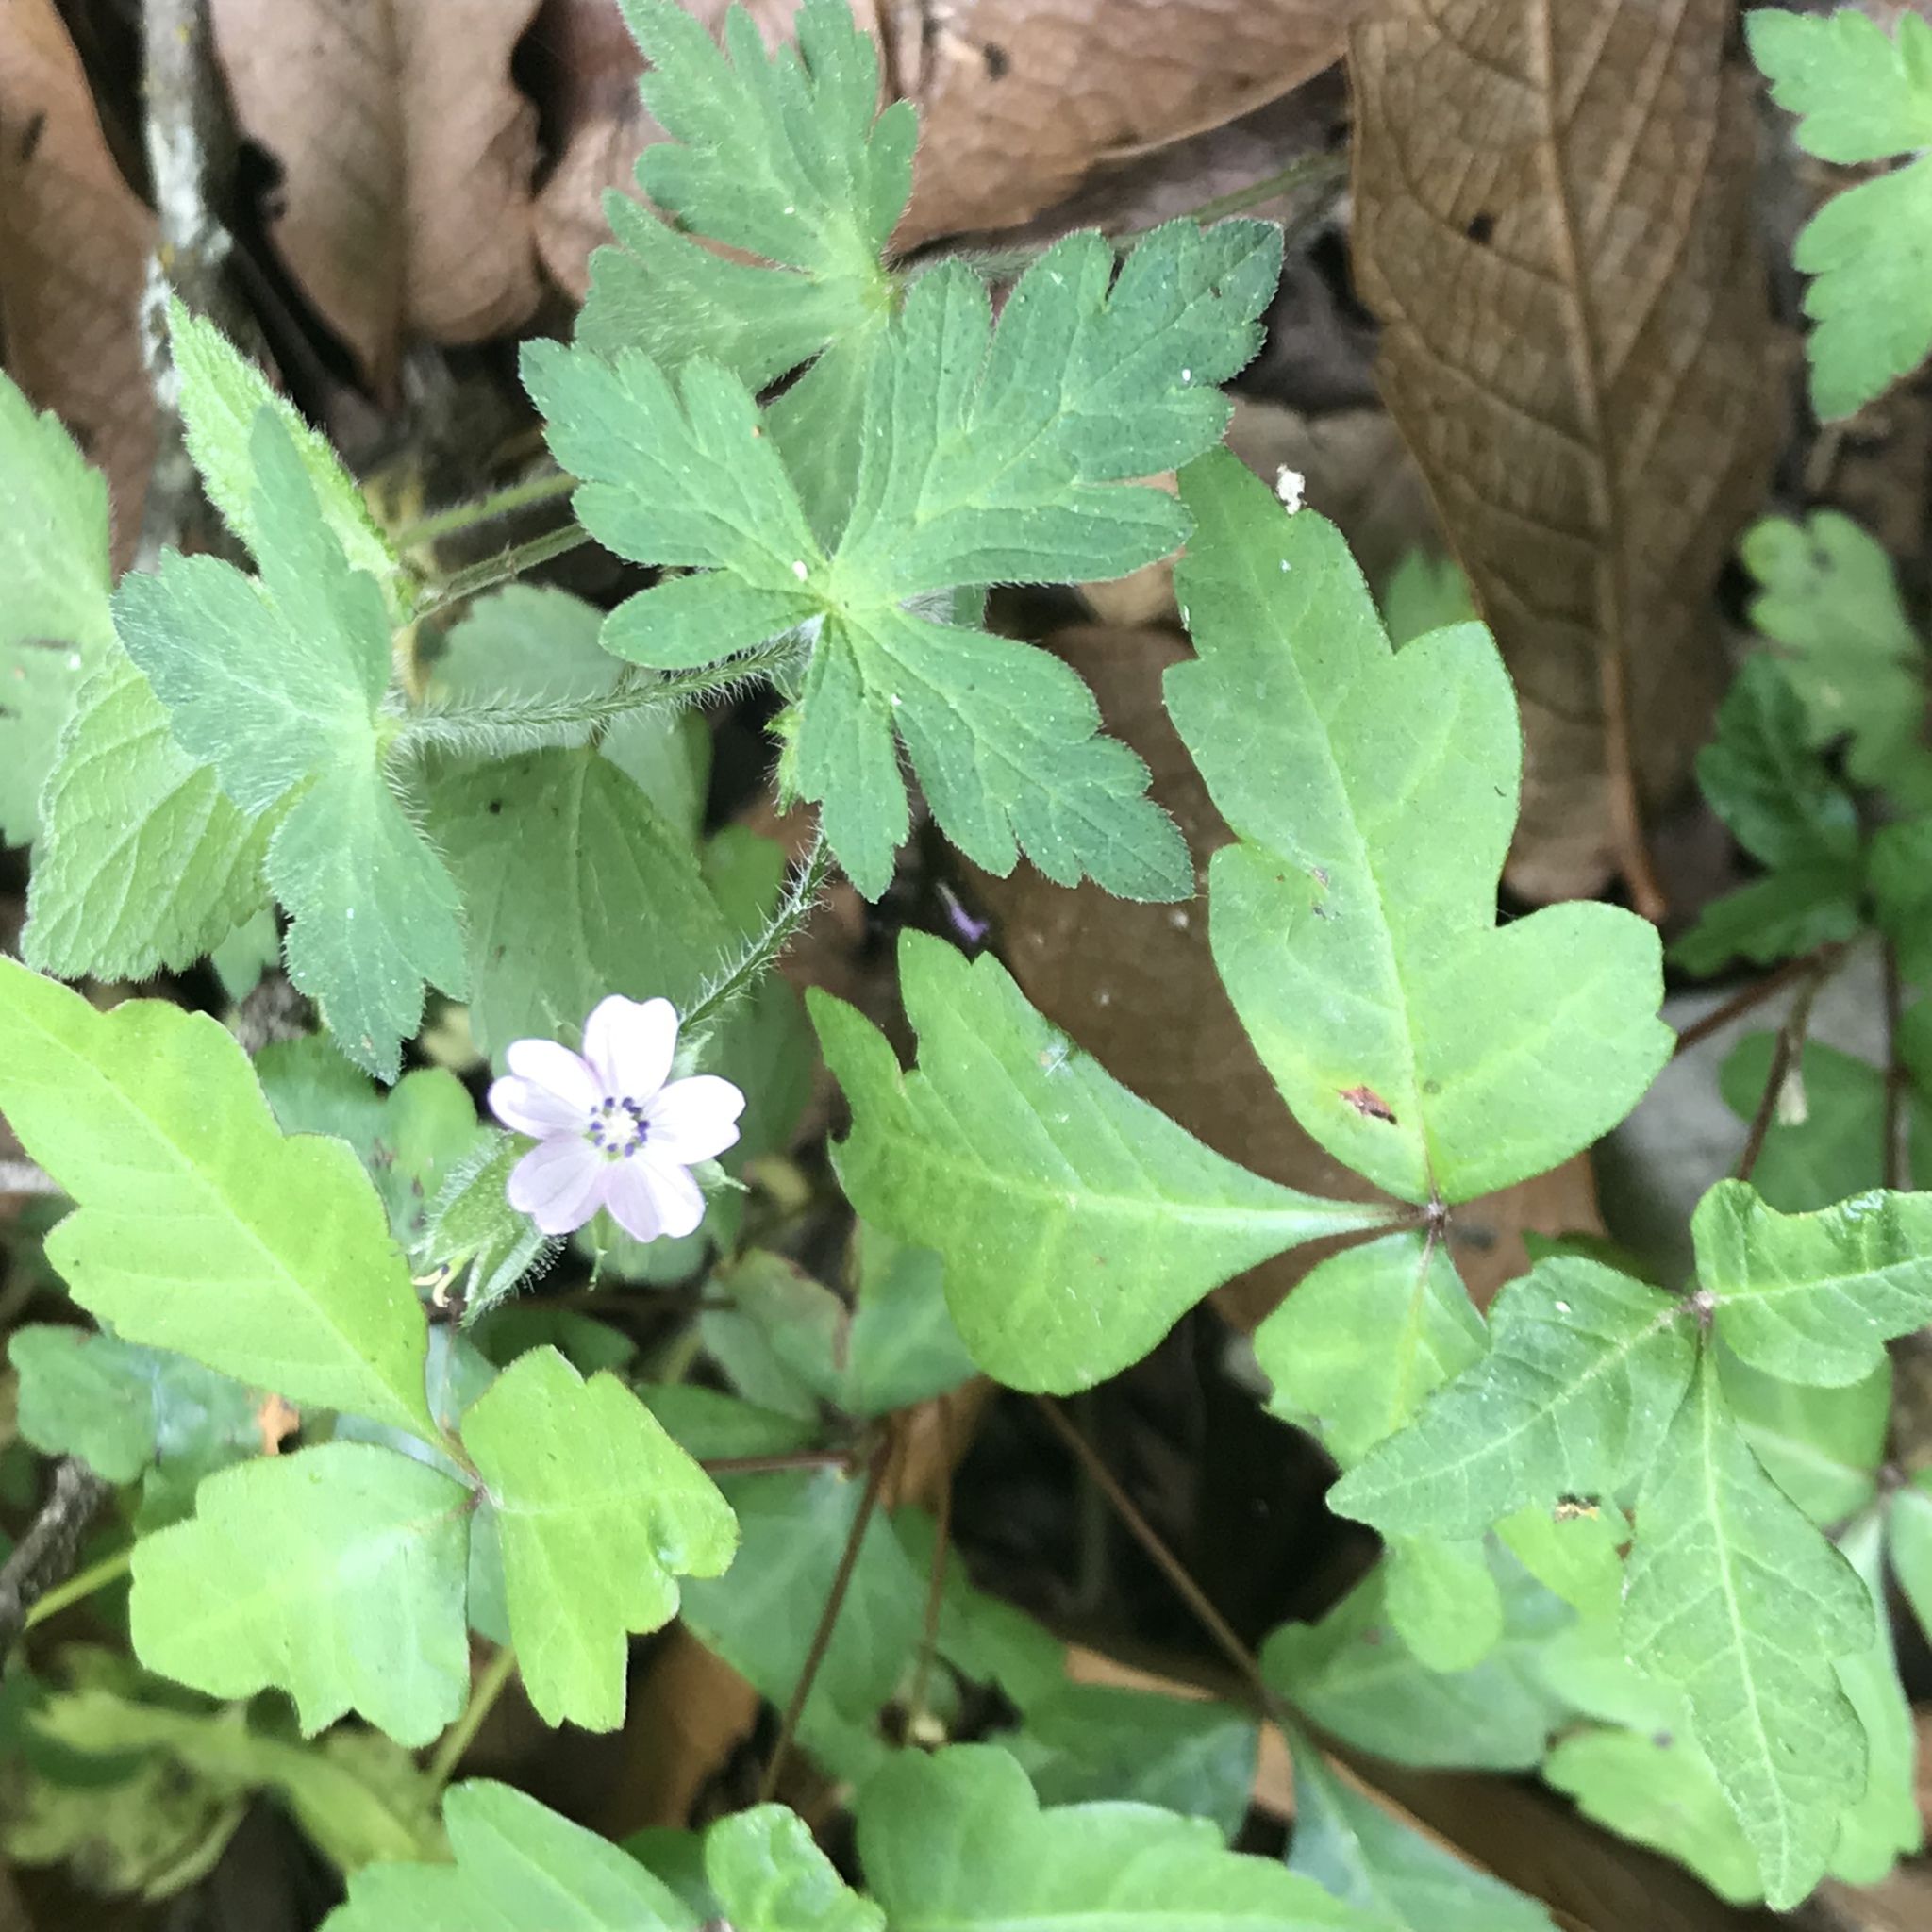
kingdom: Plantae
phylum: Tracheophyta
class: Magnoliopsida
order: Sapindales
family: Anacardiaceae
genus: Toxicodendron
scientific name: Toxicodendron radicans
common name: Poison ivy
